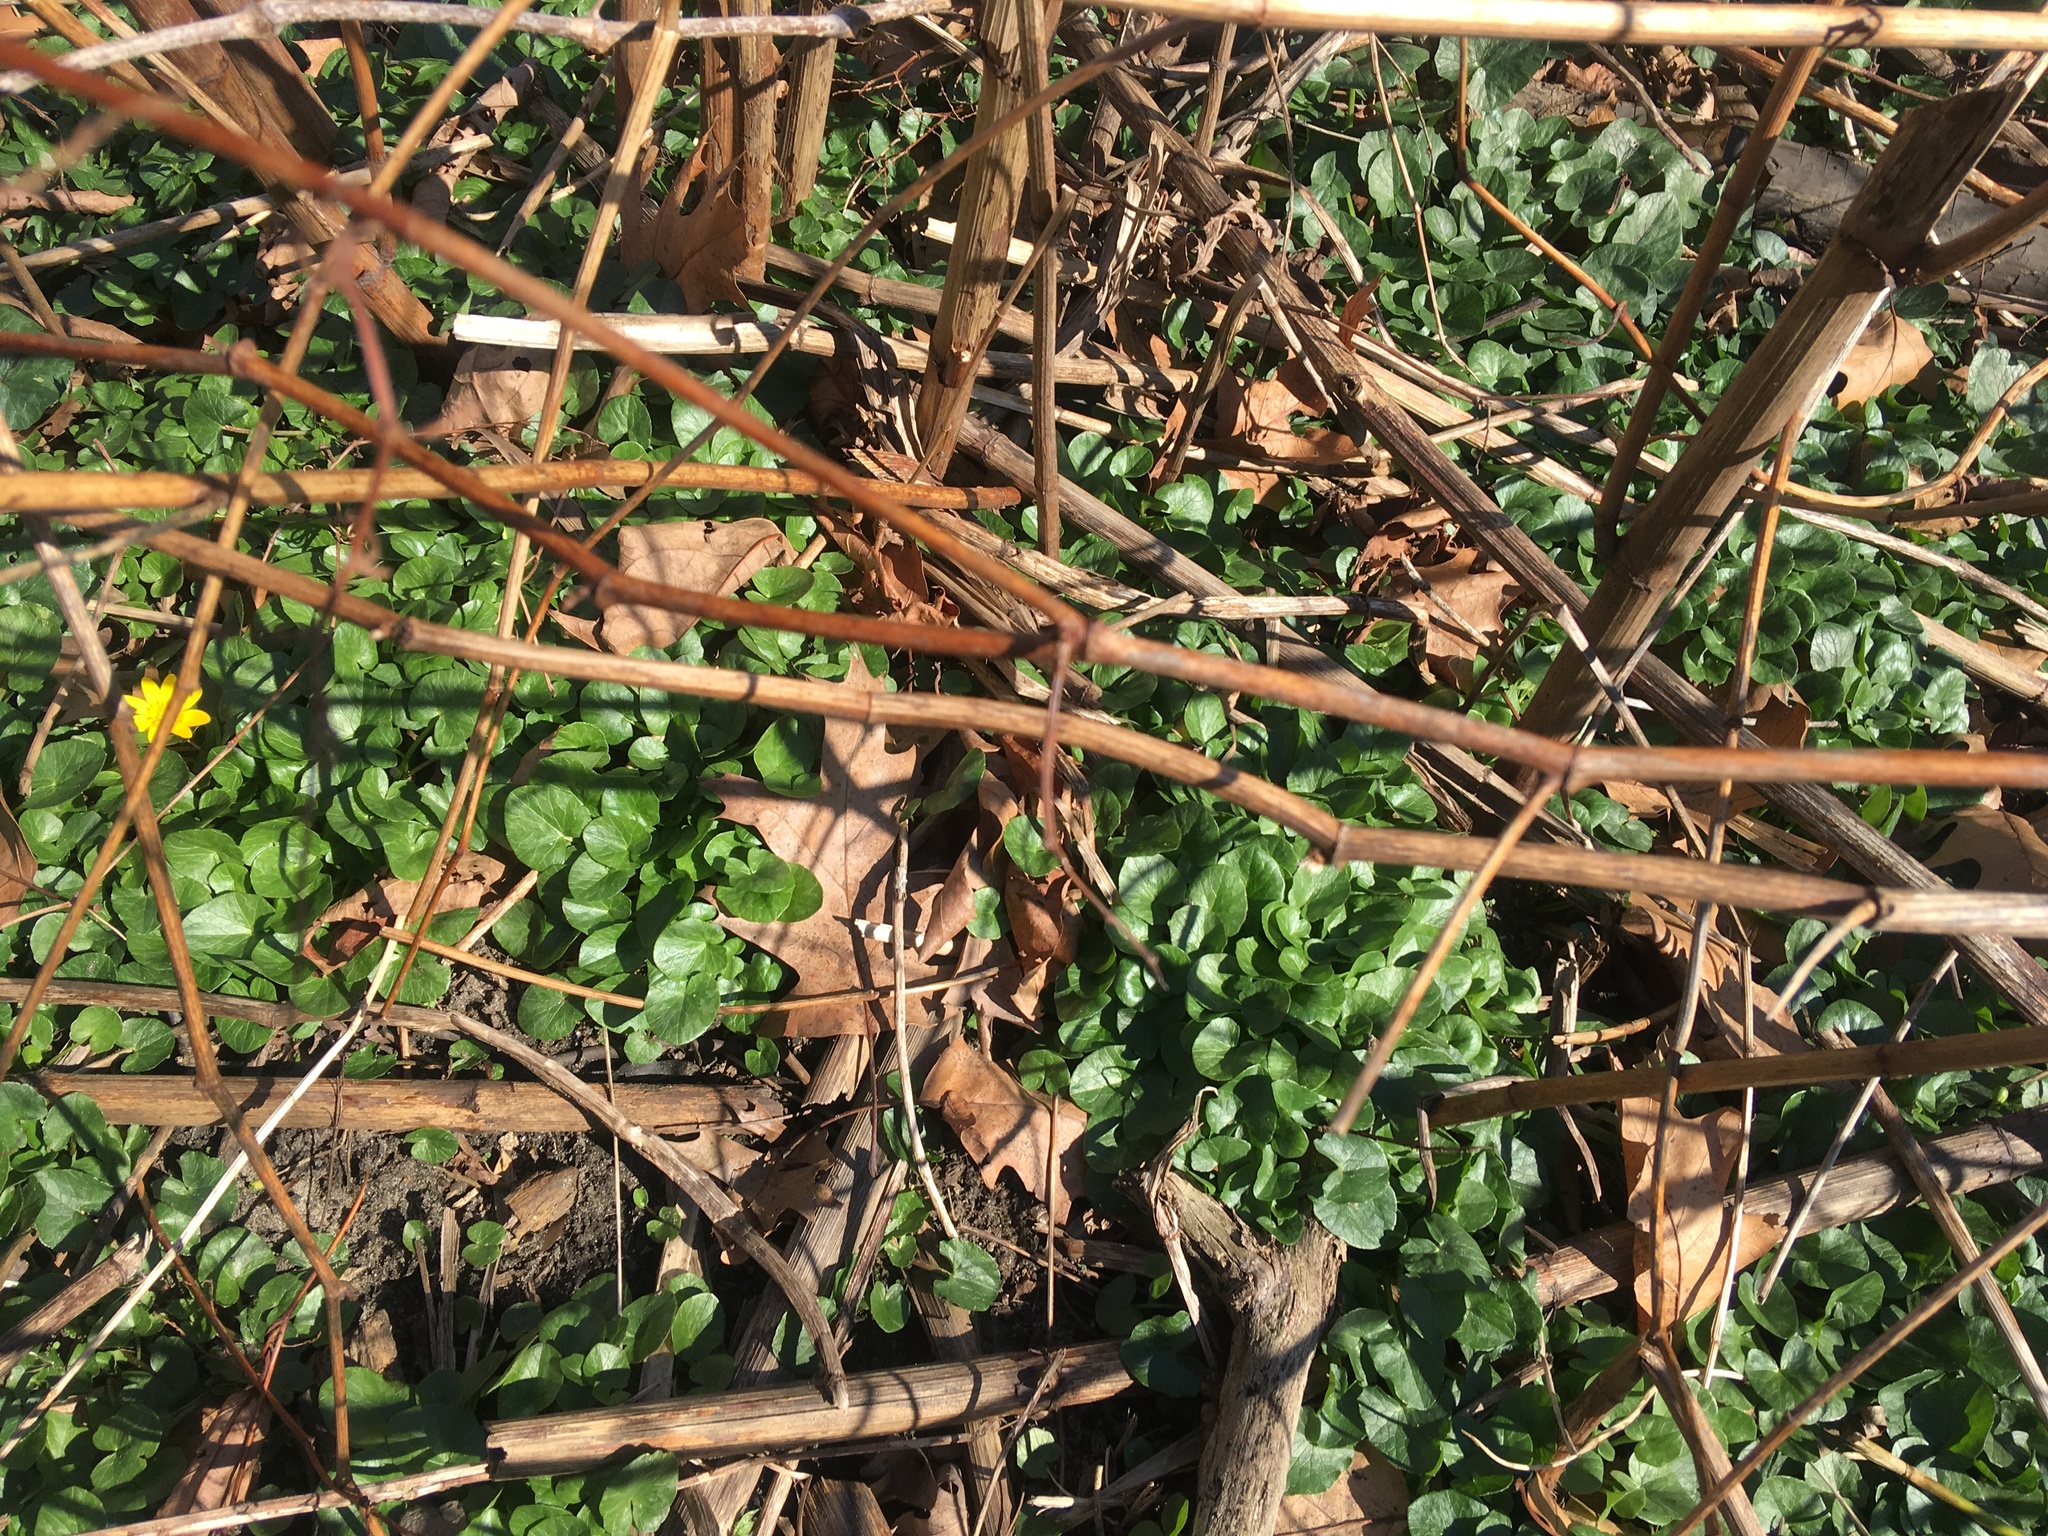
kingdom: Plantae
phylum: Tracheophyta
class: Magnoliopsida
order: Ranunculales
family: Ranunculaceae
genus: Ficaria
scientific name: Ficaria verna
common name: Lesser celandine
